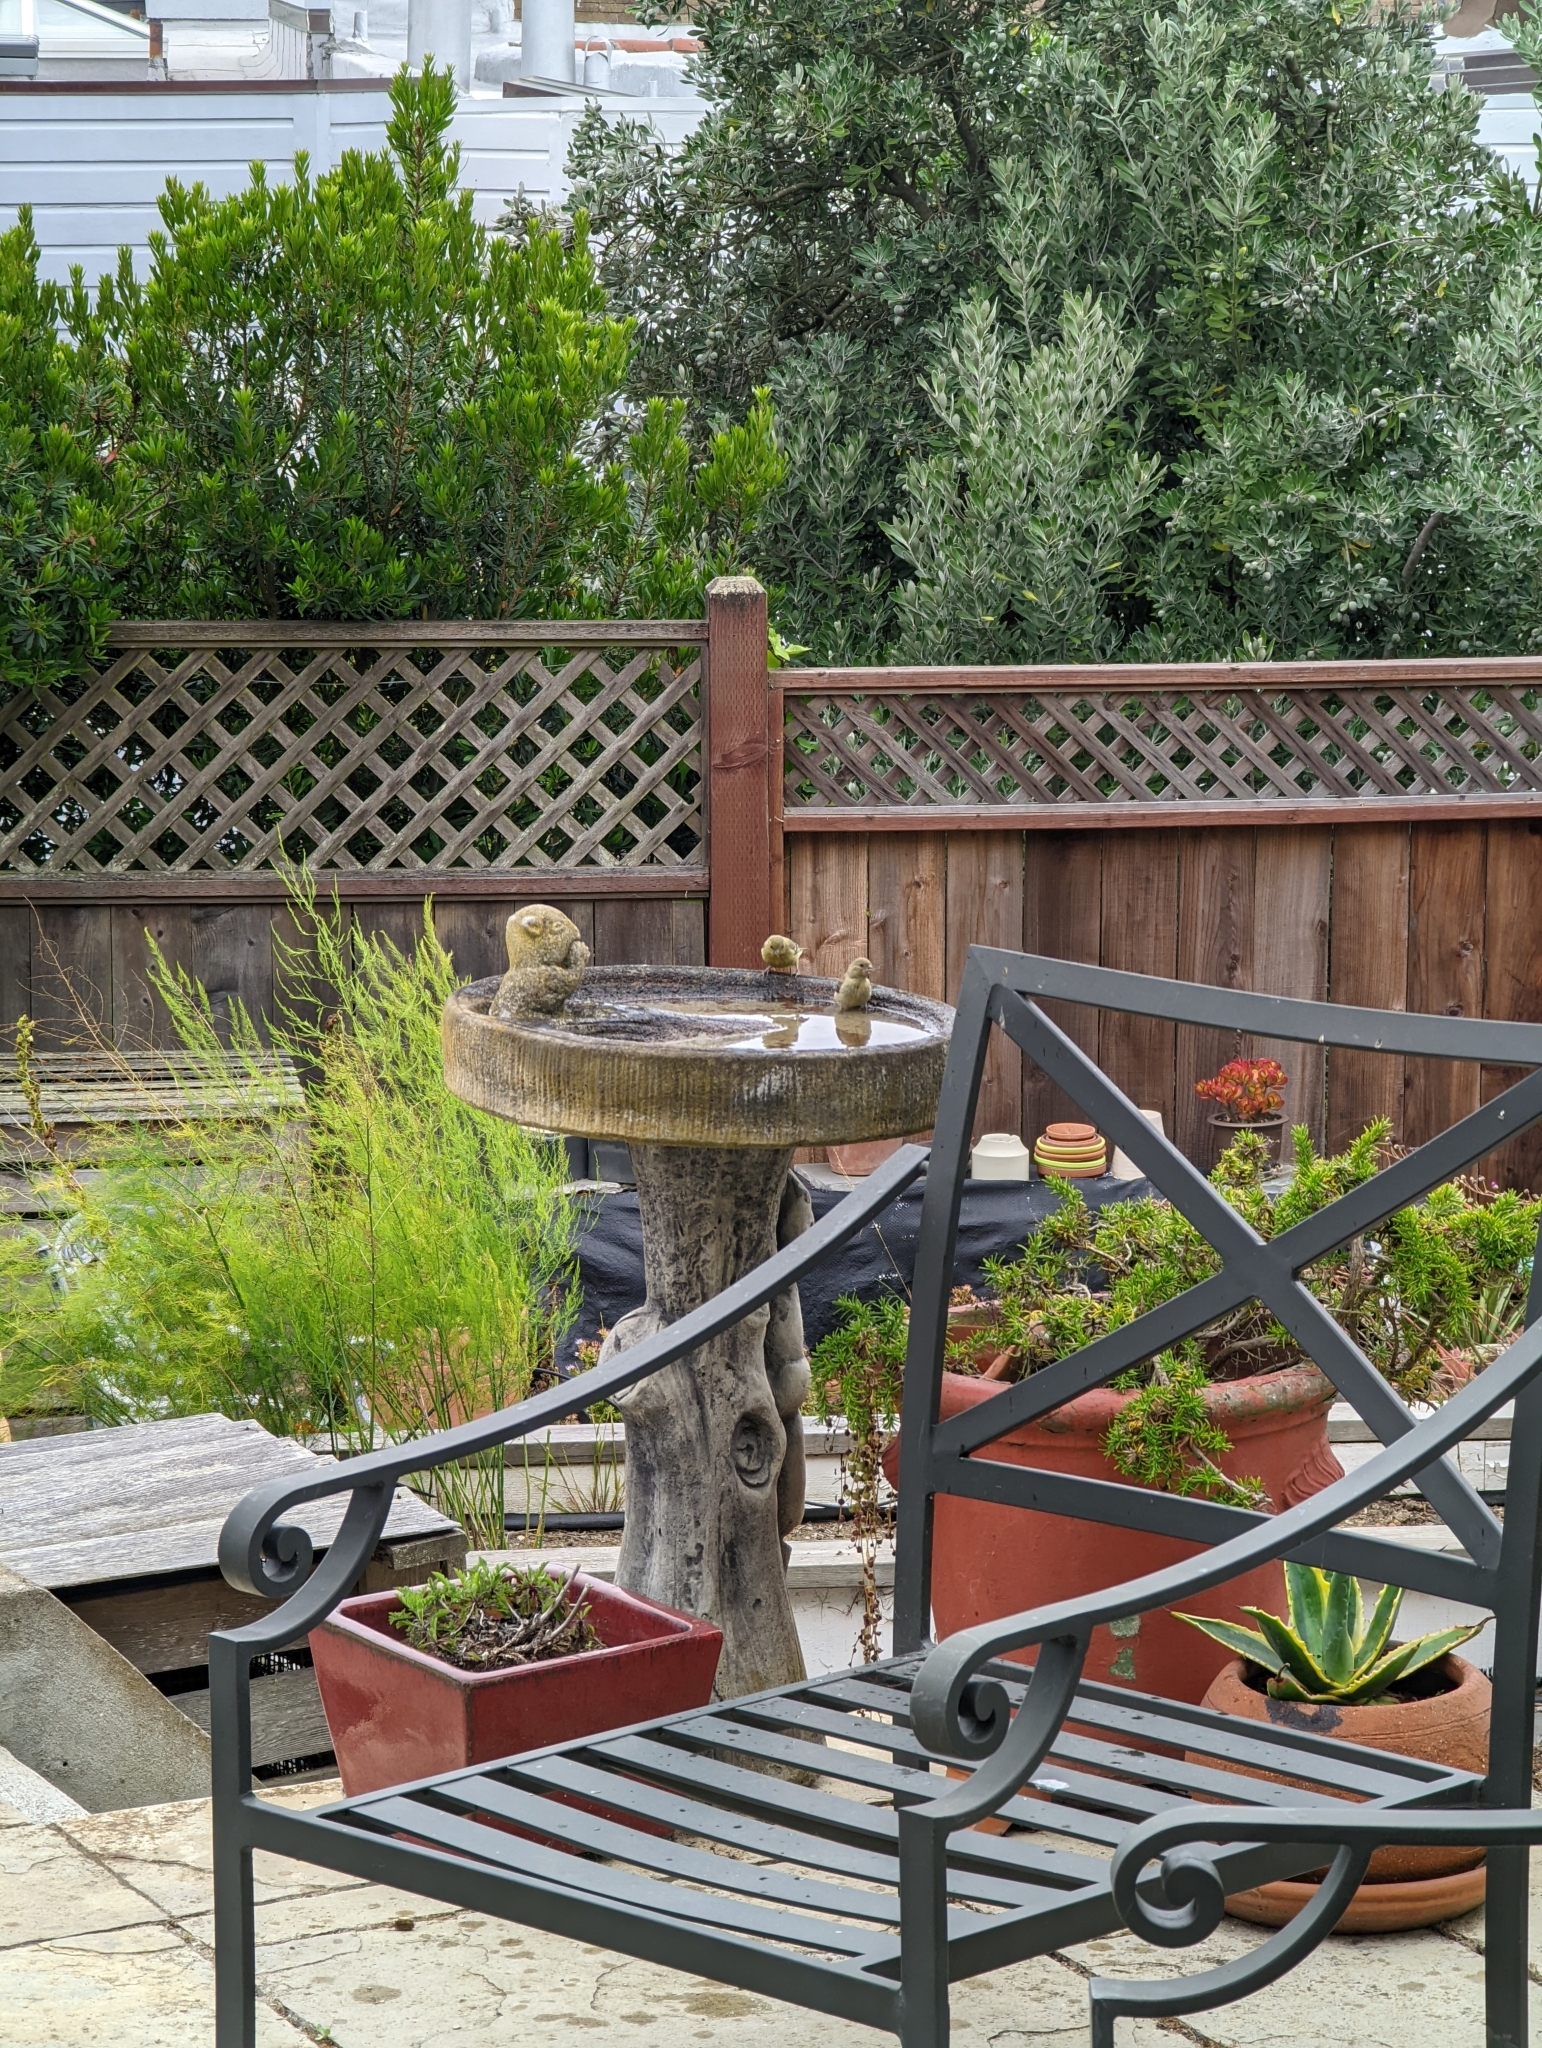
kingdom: Animalia
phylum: Chordata
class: Aves
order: Passeriformes
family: Fringillidae
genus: Spinus
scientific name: Spinus psaltria
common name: Lesser goldfinch
